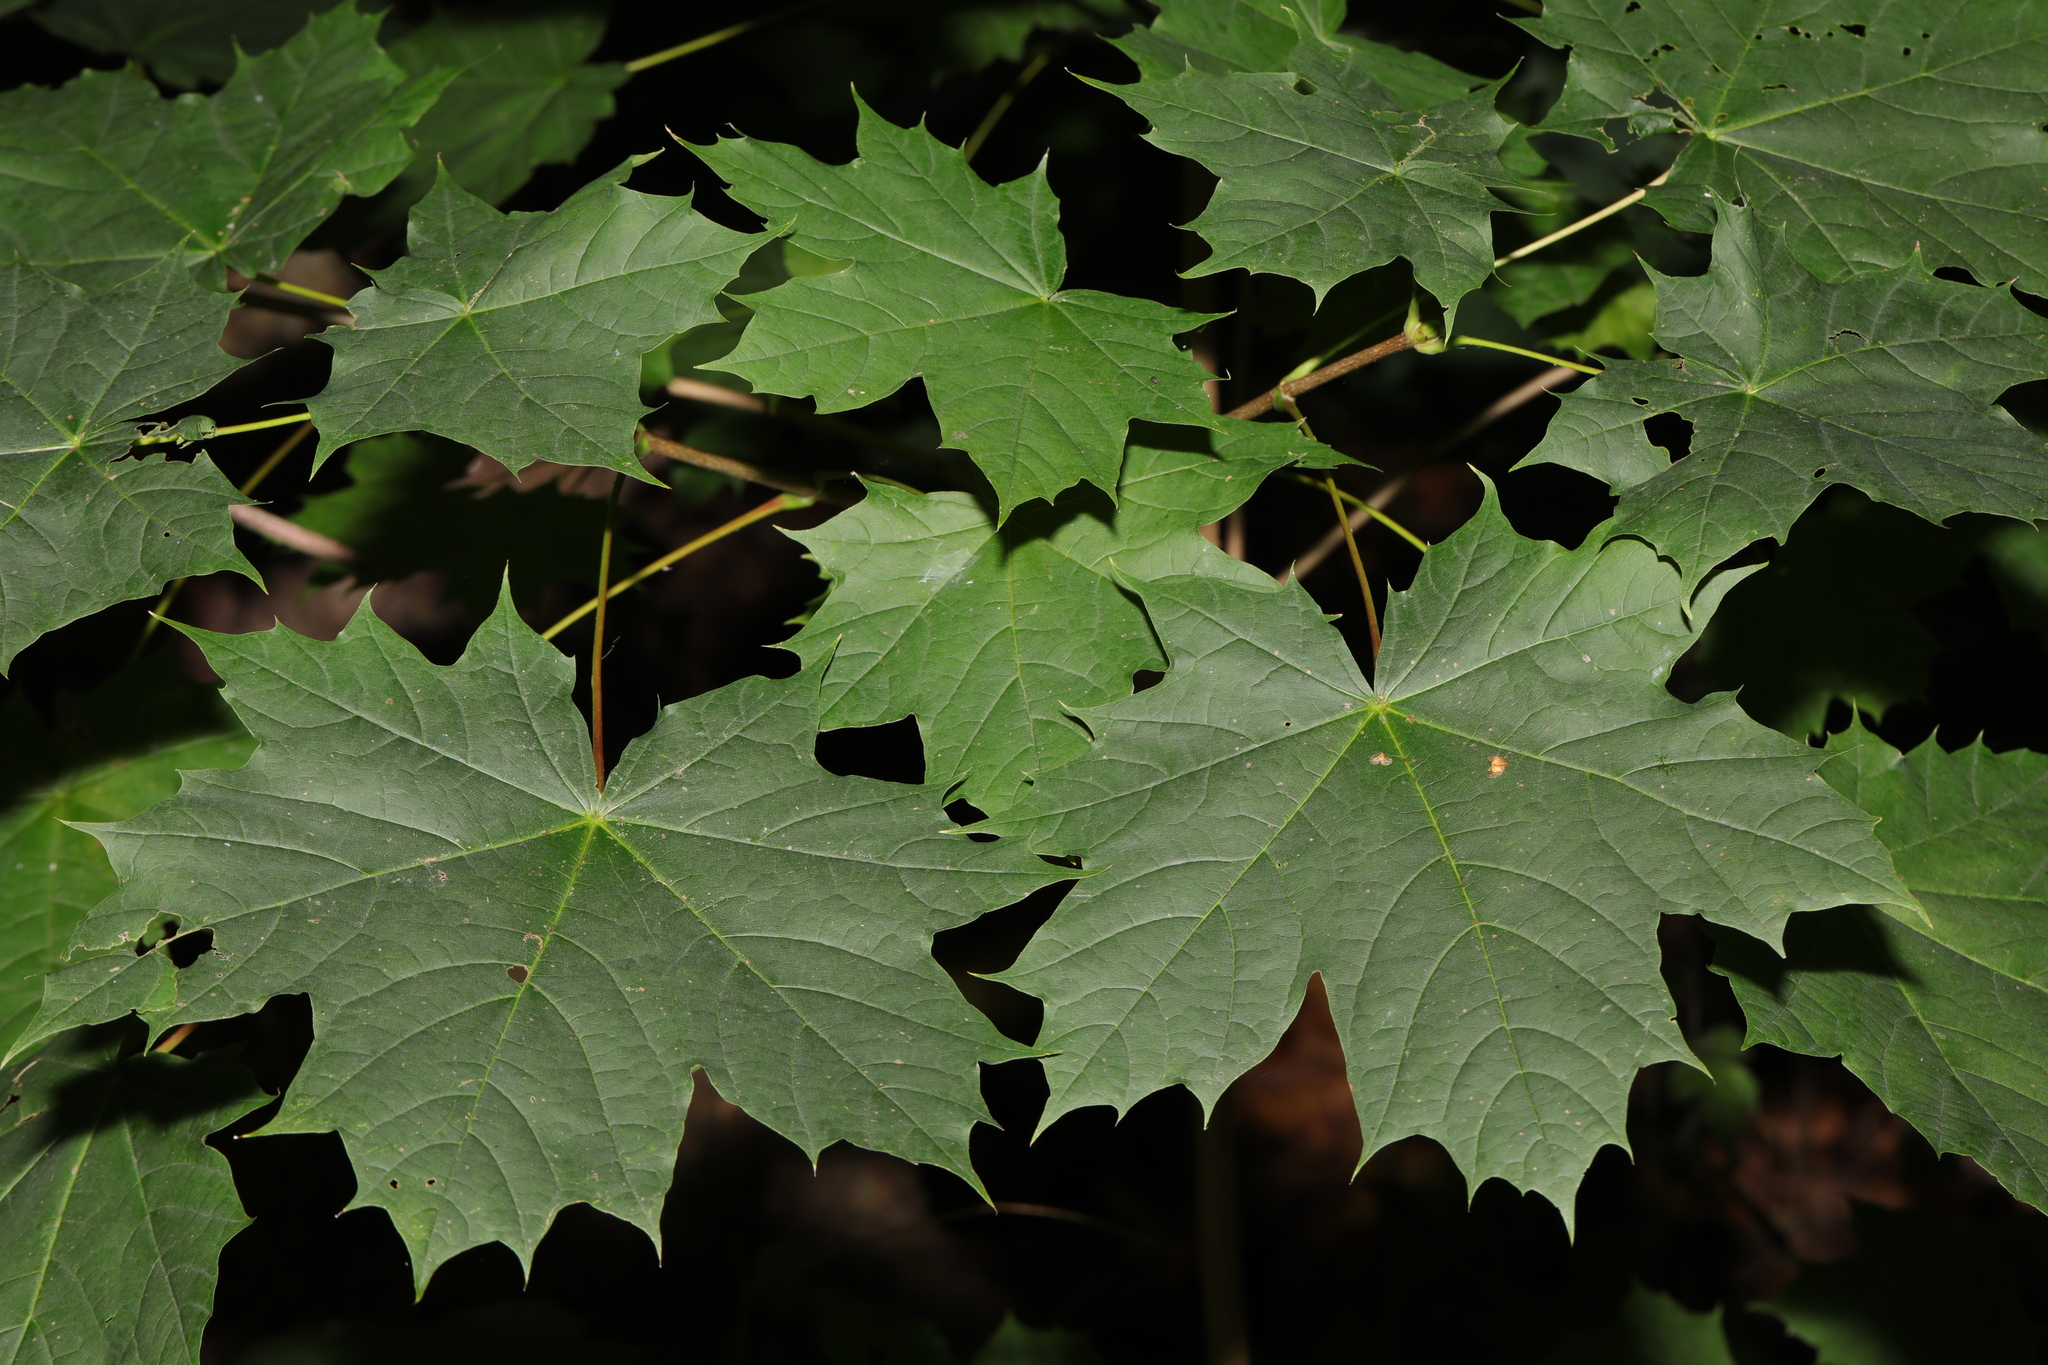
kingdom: Plantae
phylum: Tracheophyta
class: Magnoliopsida
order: Sapindales
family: Sapindaceae
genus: Acer
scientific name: Acer platanoides
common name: Norway maple
